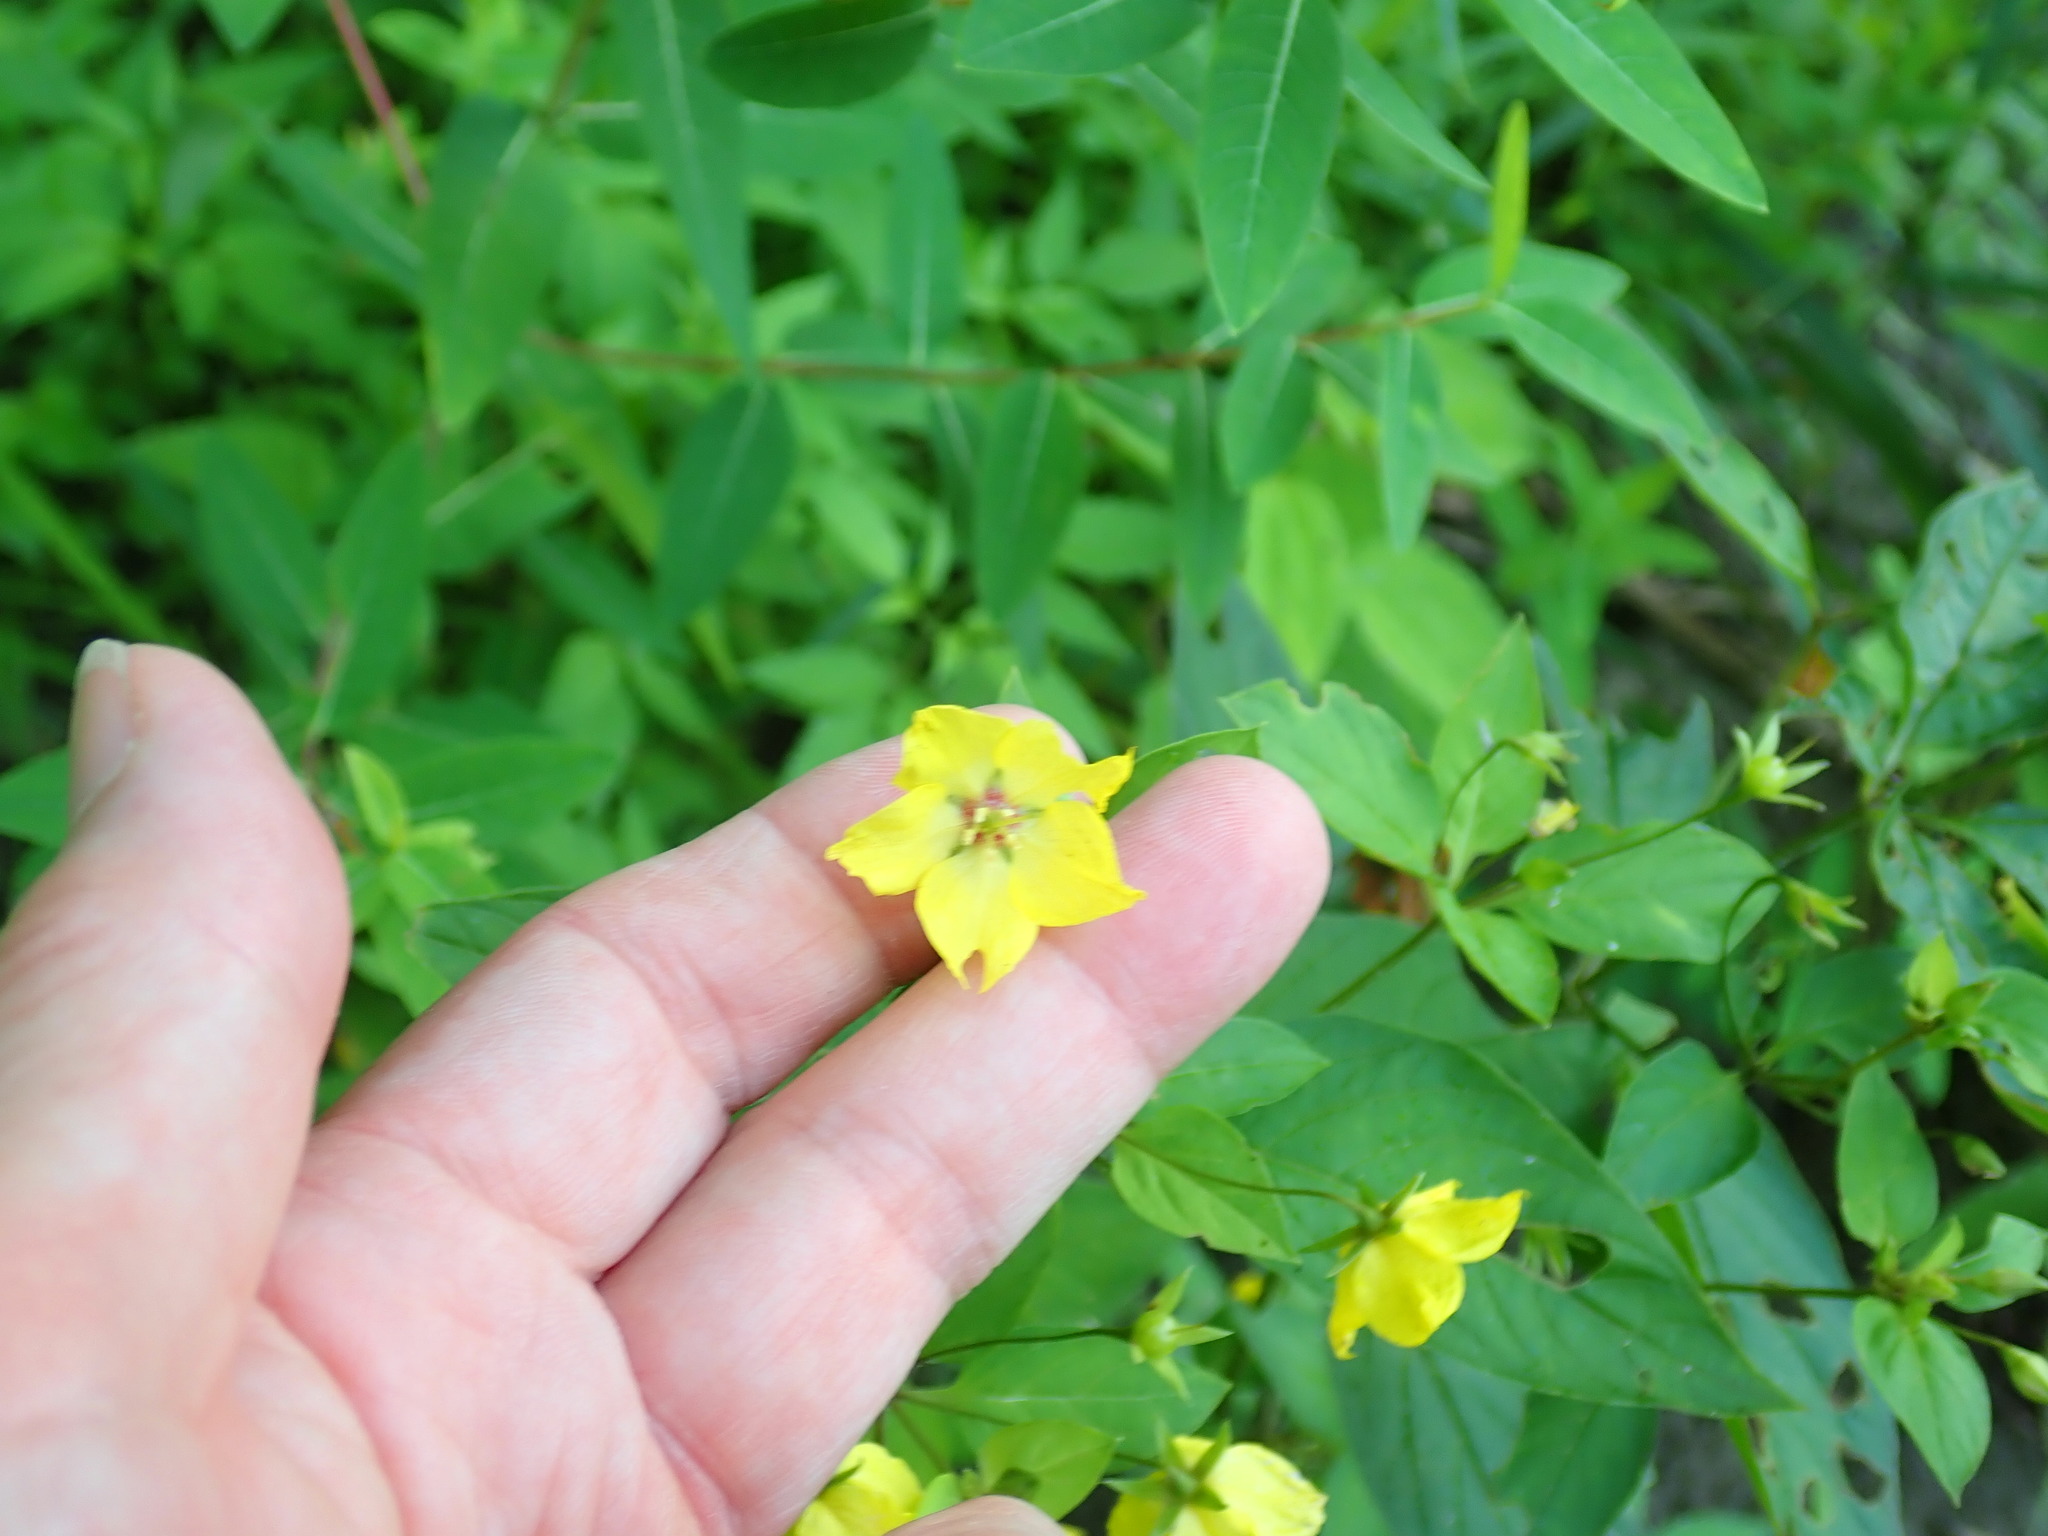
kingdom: Plantae
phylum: Tracheophyta
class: Magnoliopsida
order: Ericales
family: Primulaceae
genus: Lysimachia
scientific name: Lysimachia ciliata
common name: Fringed loosestrife
